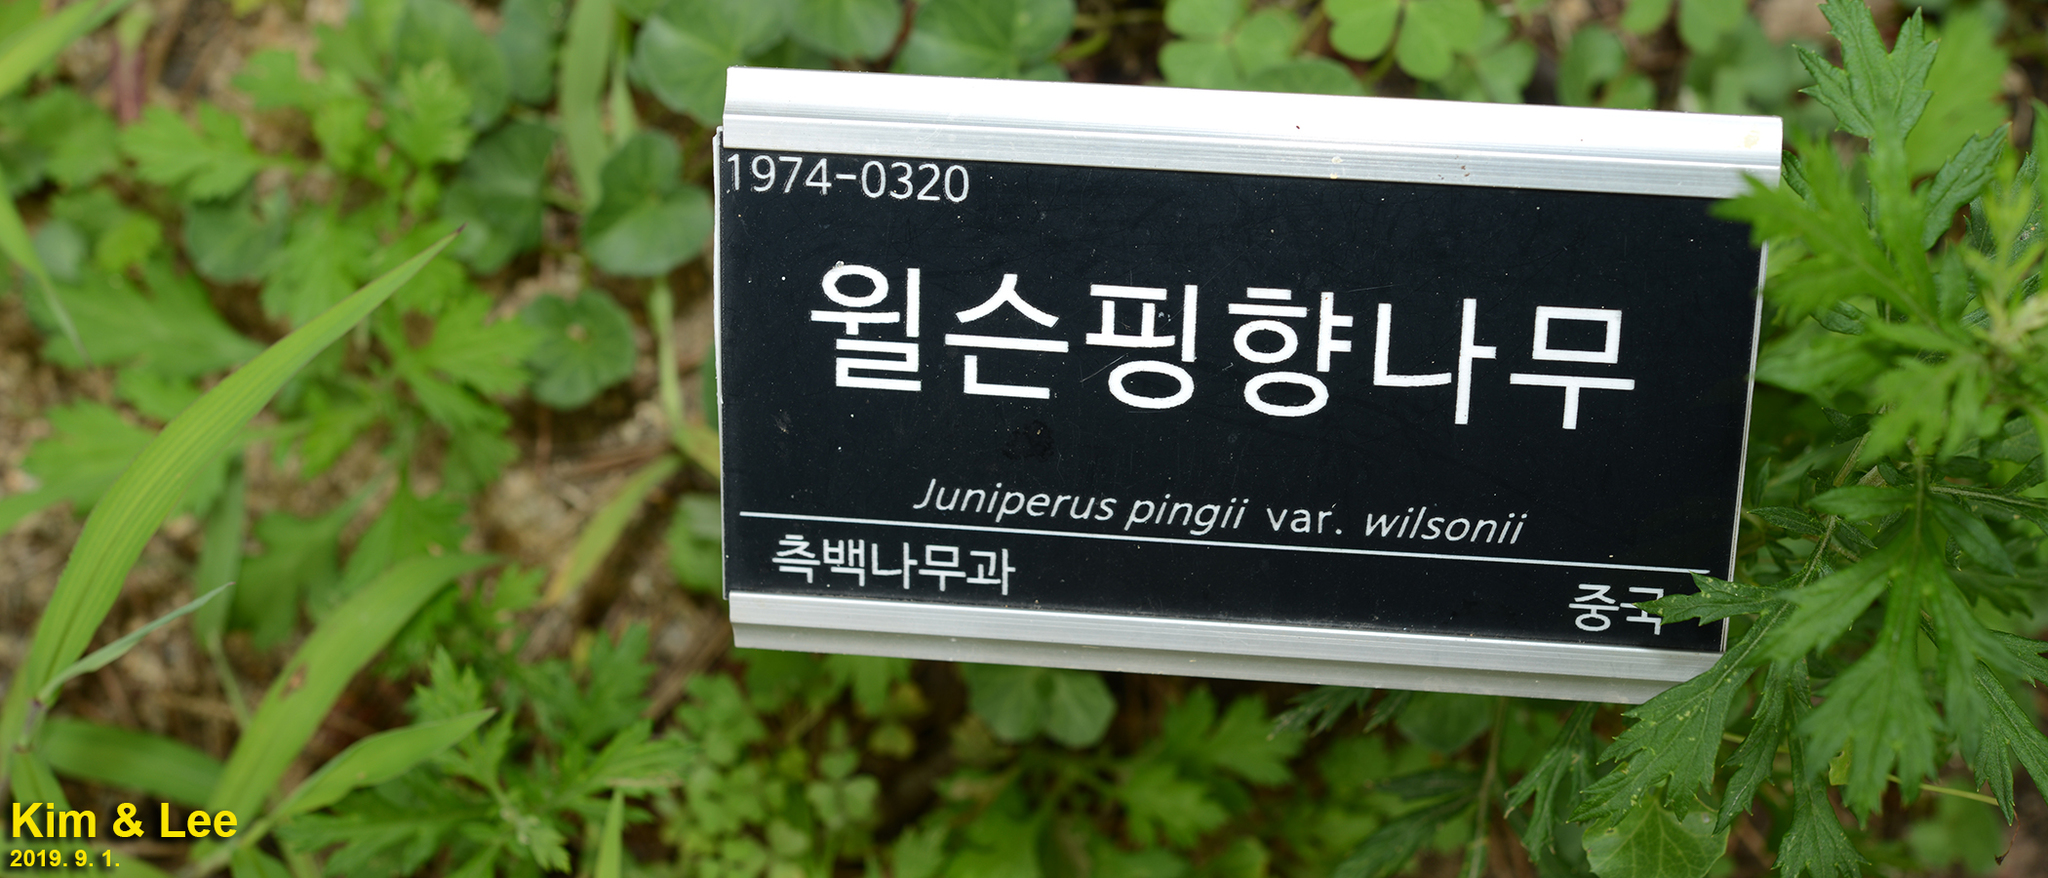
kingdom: Plantae
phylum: Tracheophyta
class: Pinopsida
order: Pinales
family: Cupressaceae
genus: Juniperus
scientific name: Juniperus pingii
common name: Ping's juniper
